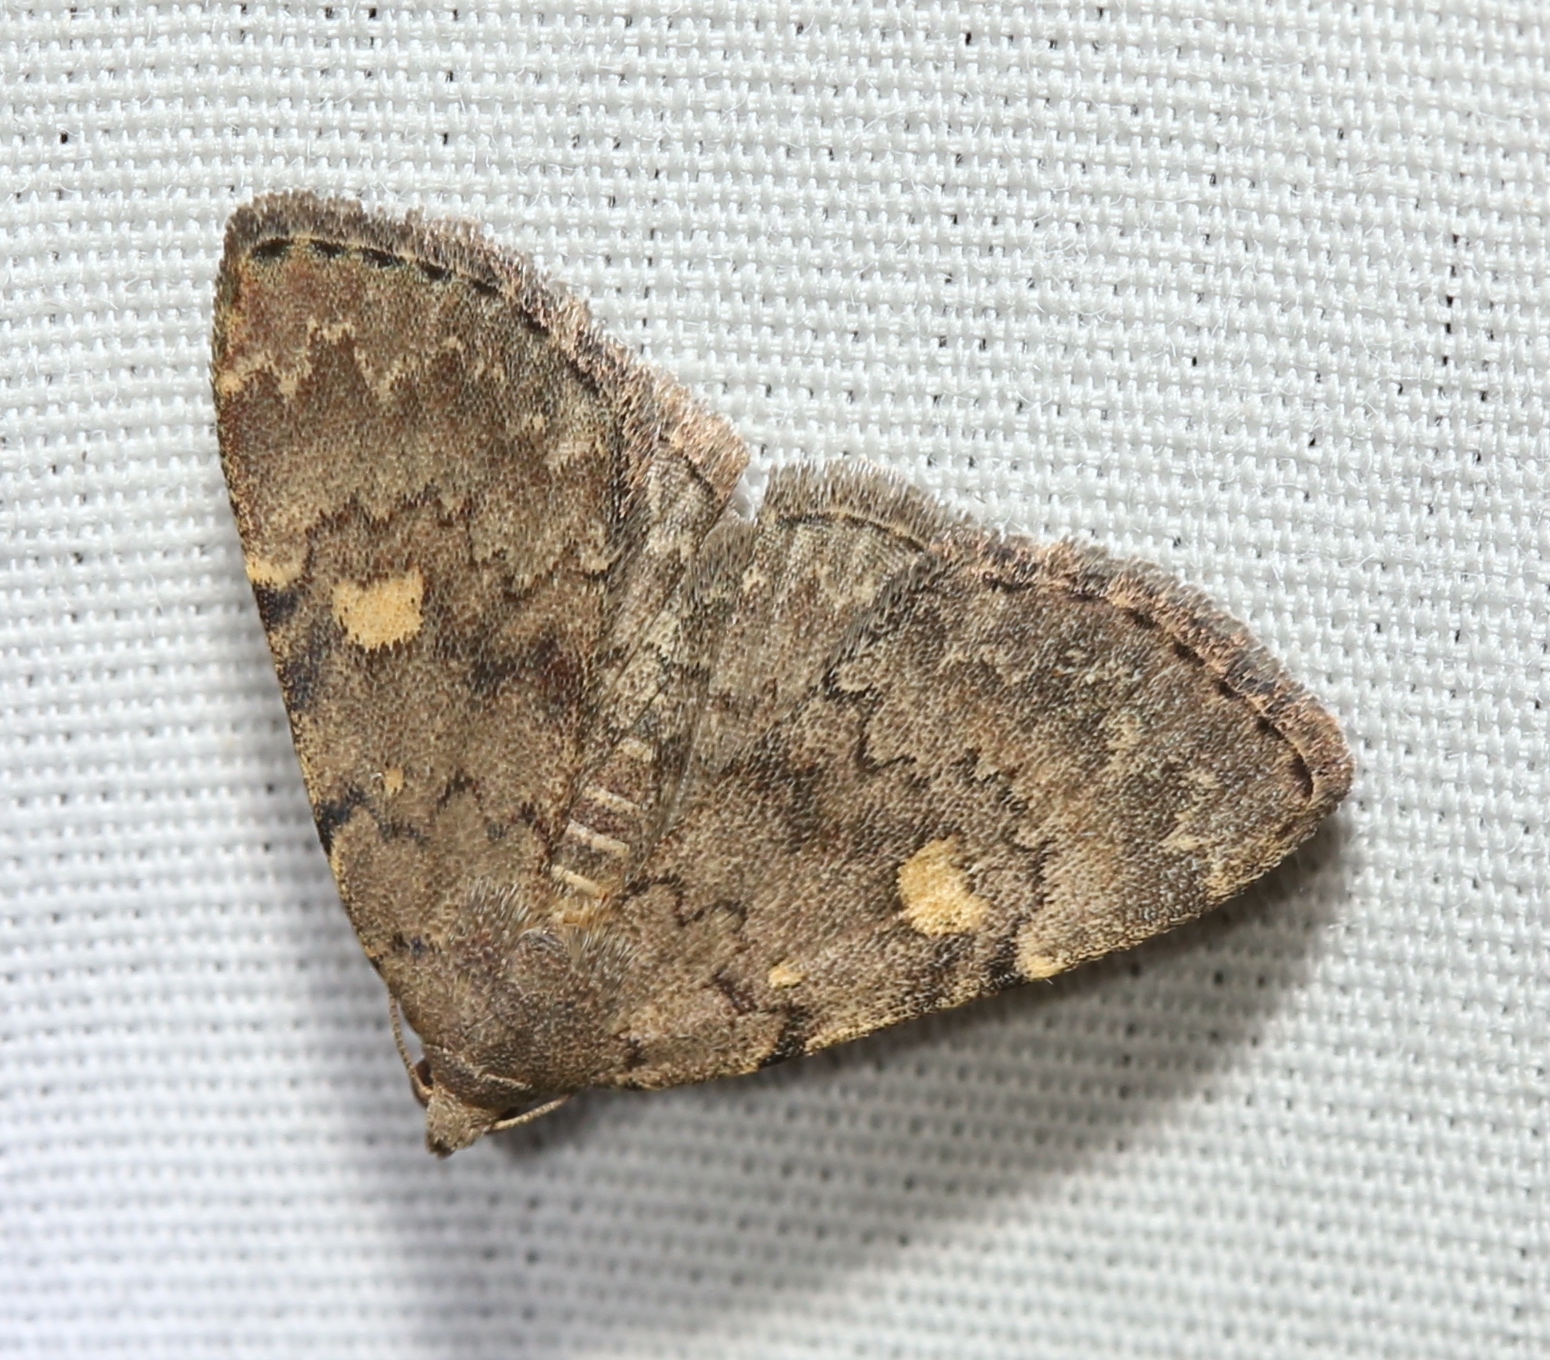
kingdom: Animalia
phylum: Arthropoda
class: Insecta
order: Lepidoptera
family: Erebidae
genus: Idia
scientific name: Idia aemula
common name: Common idia moth
